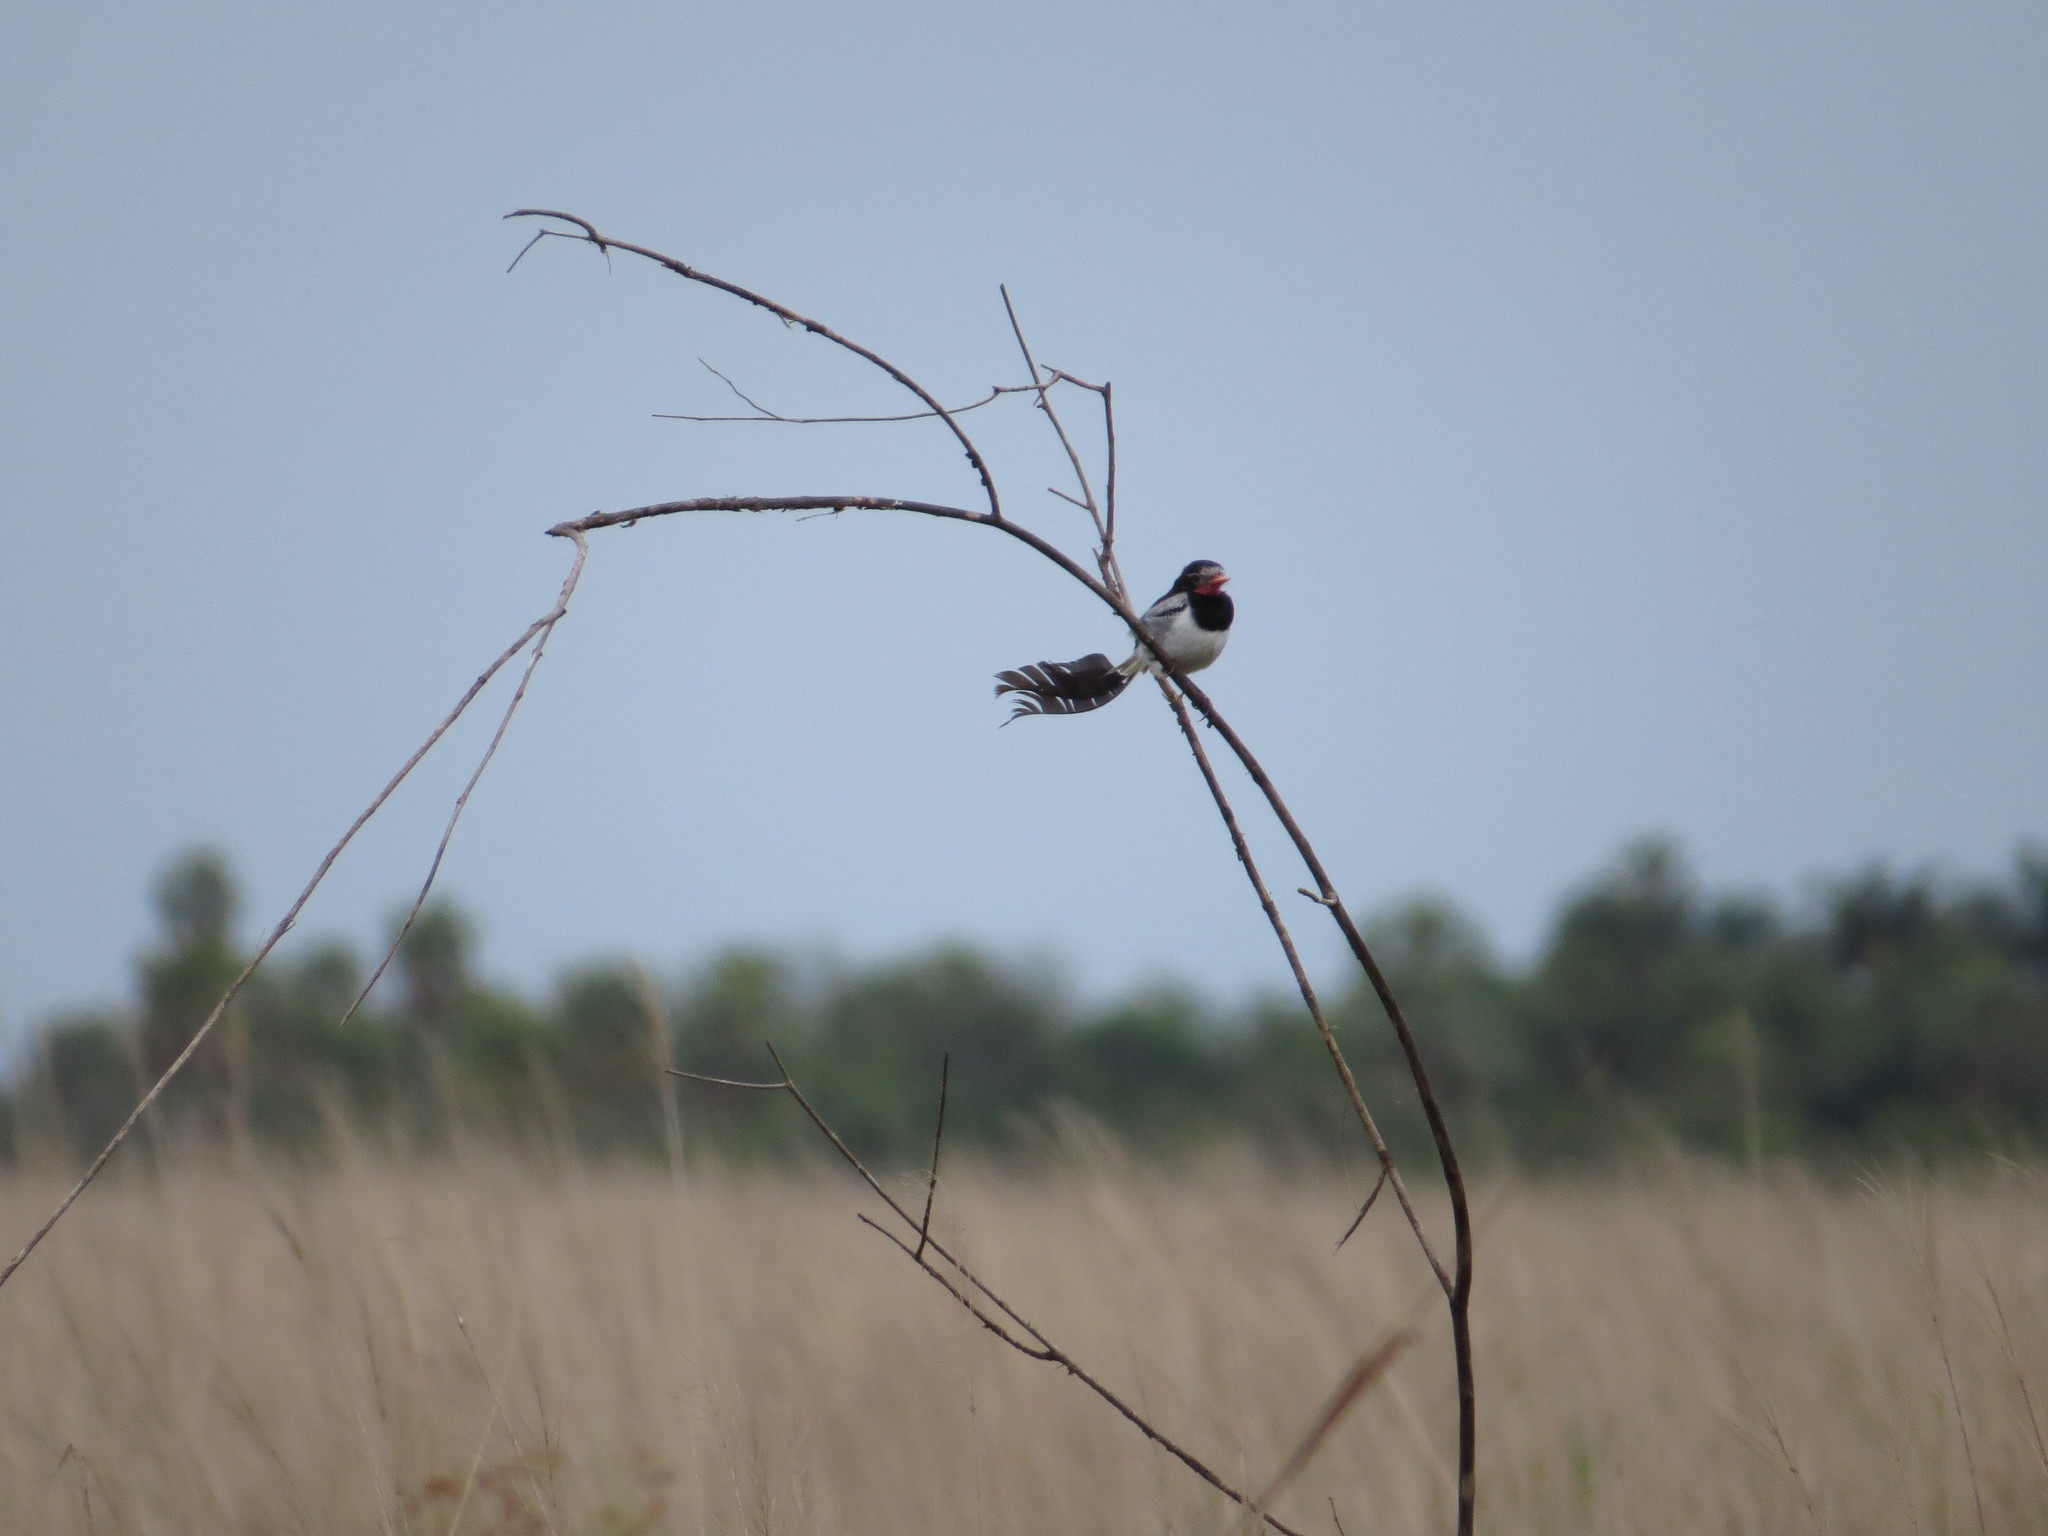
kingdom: Animalia
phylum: Chordata
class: Aves
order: Passeriformes
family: Tyrannidae
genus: Alectrurus
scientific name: Alectrurus risora
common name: Strange-tailed tyrant
